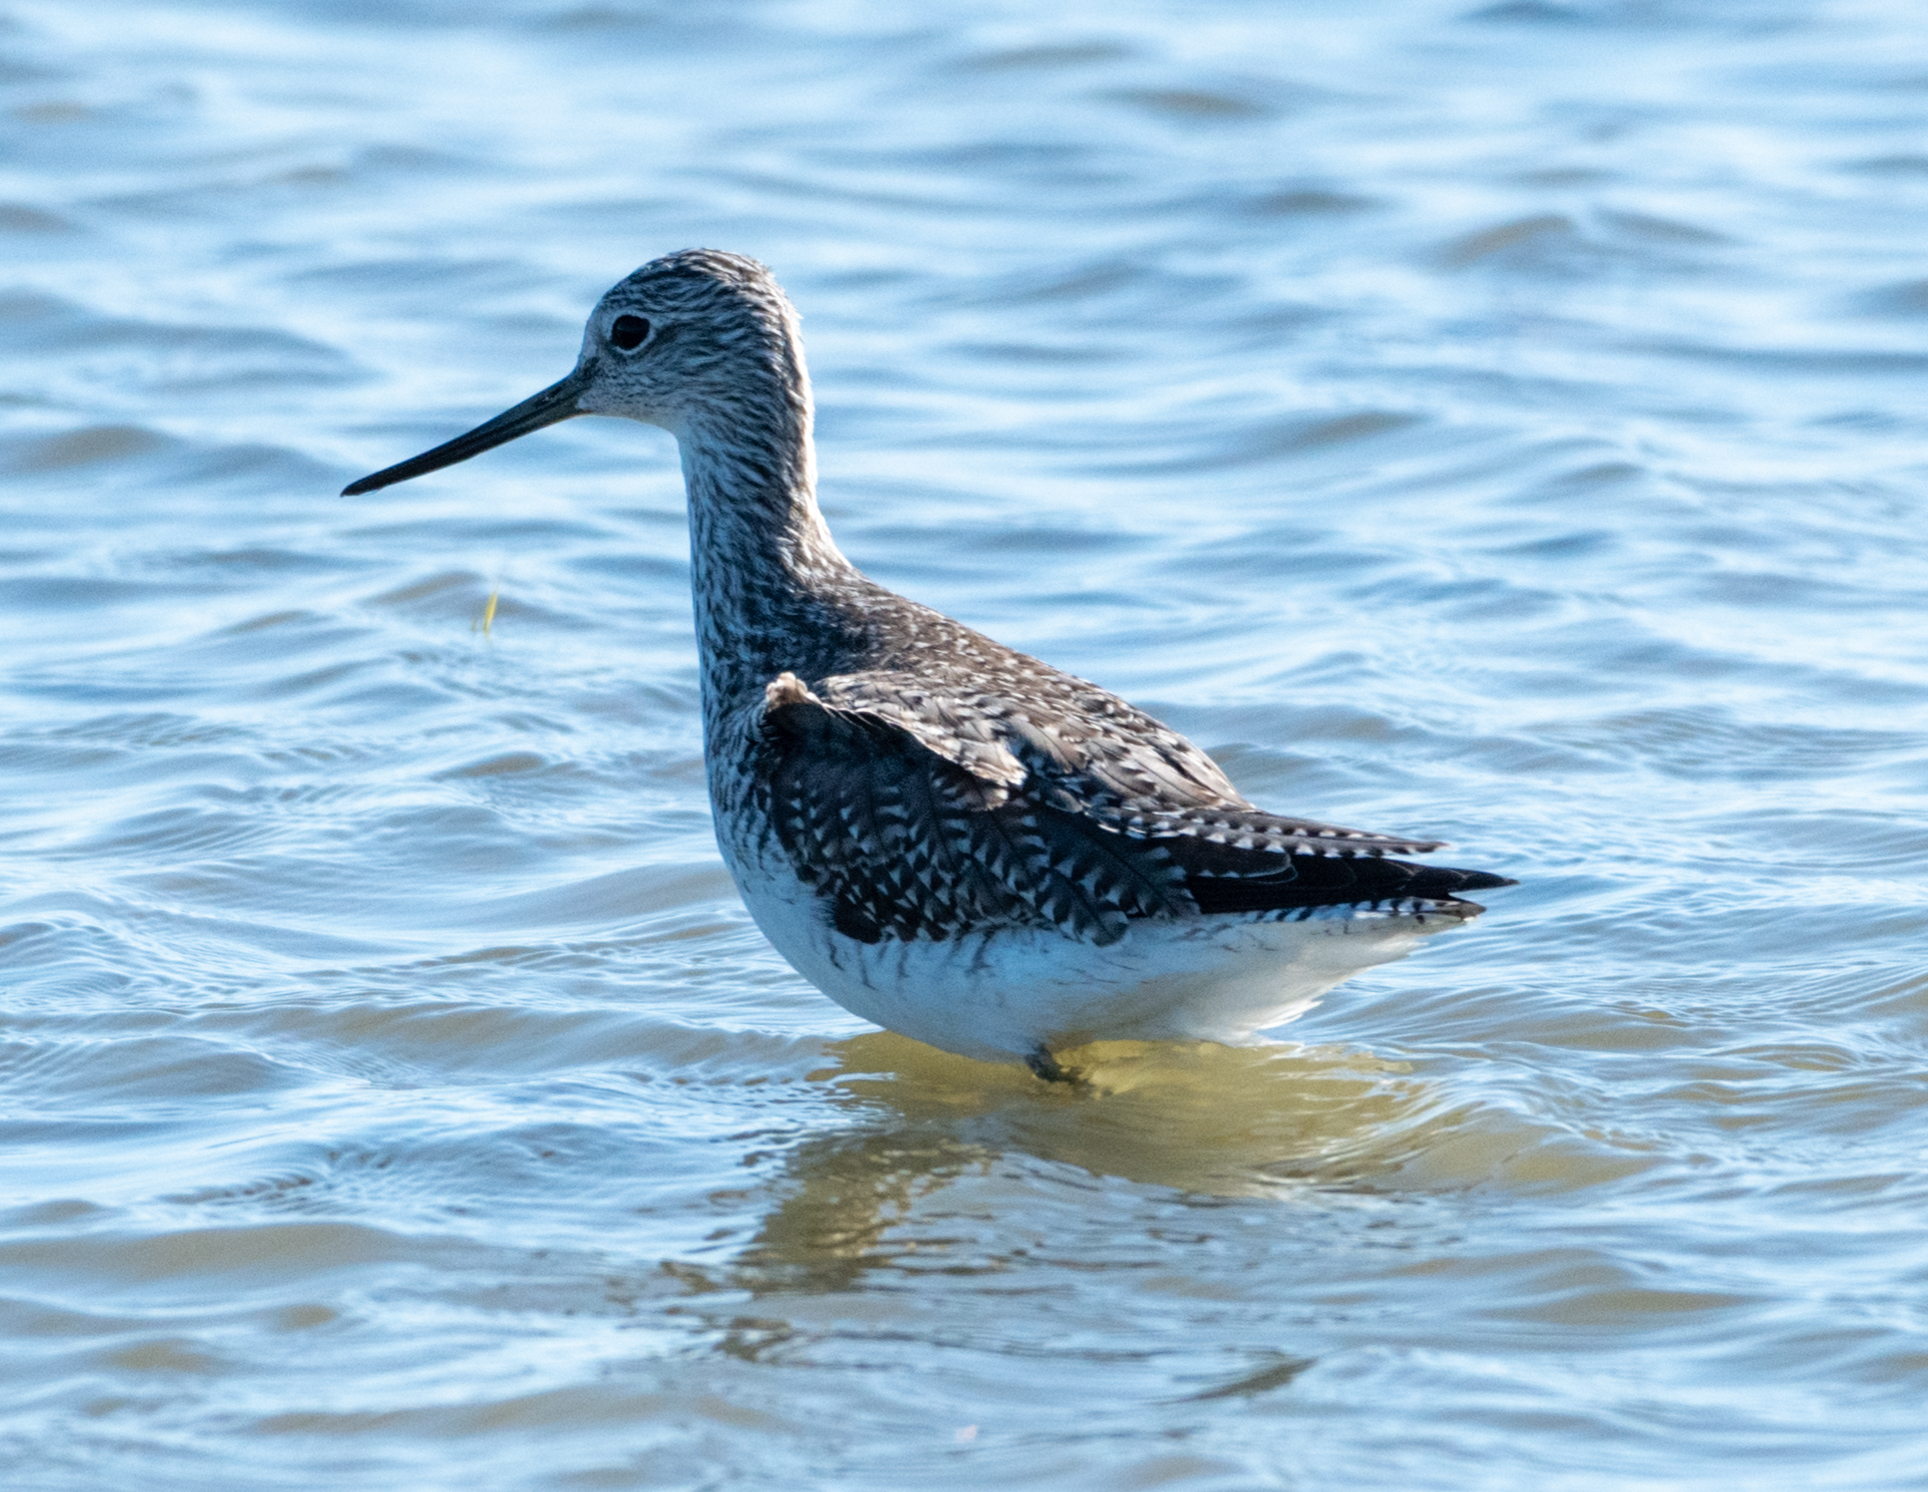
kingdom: Animalia
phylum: Chordata
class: Aves
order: Charadriiformes
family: Scolopacidae
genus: Tringa
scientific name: Tringa melanoleuca
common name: Greater yellowlegs
